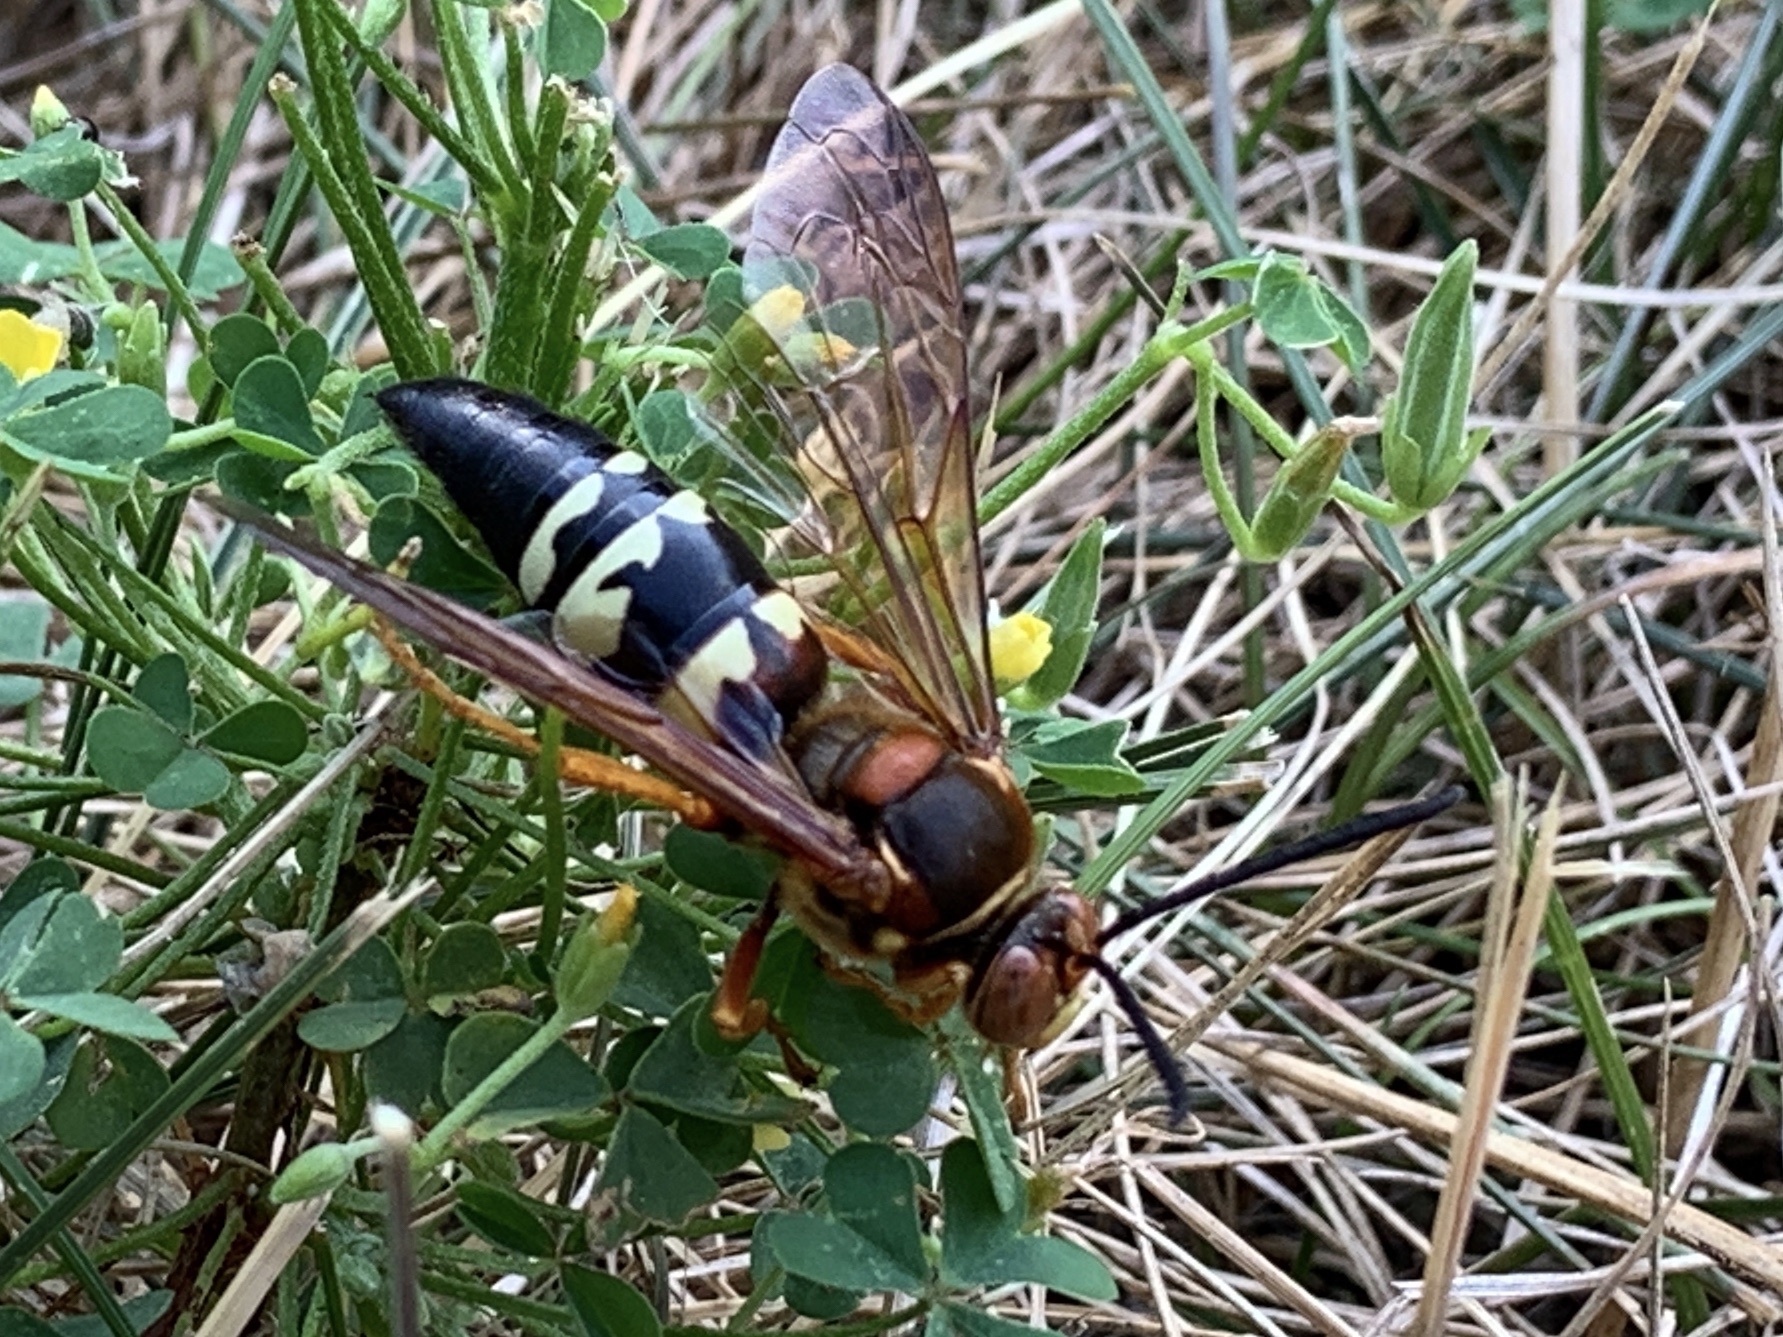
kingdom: Animalia
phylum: Arthropoda
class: Insecta
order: Hymenoptera
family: Crabronidae
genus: Sphecius
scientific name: Sphecius speciosus
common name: Cicada killer
